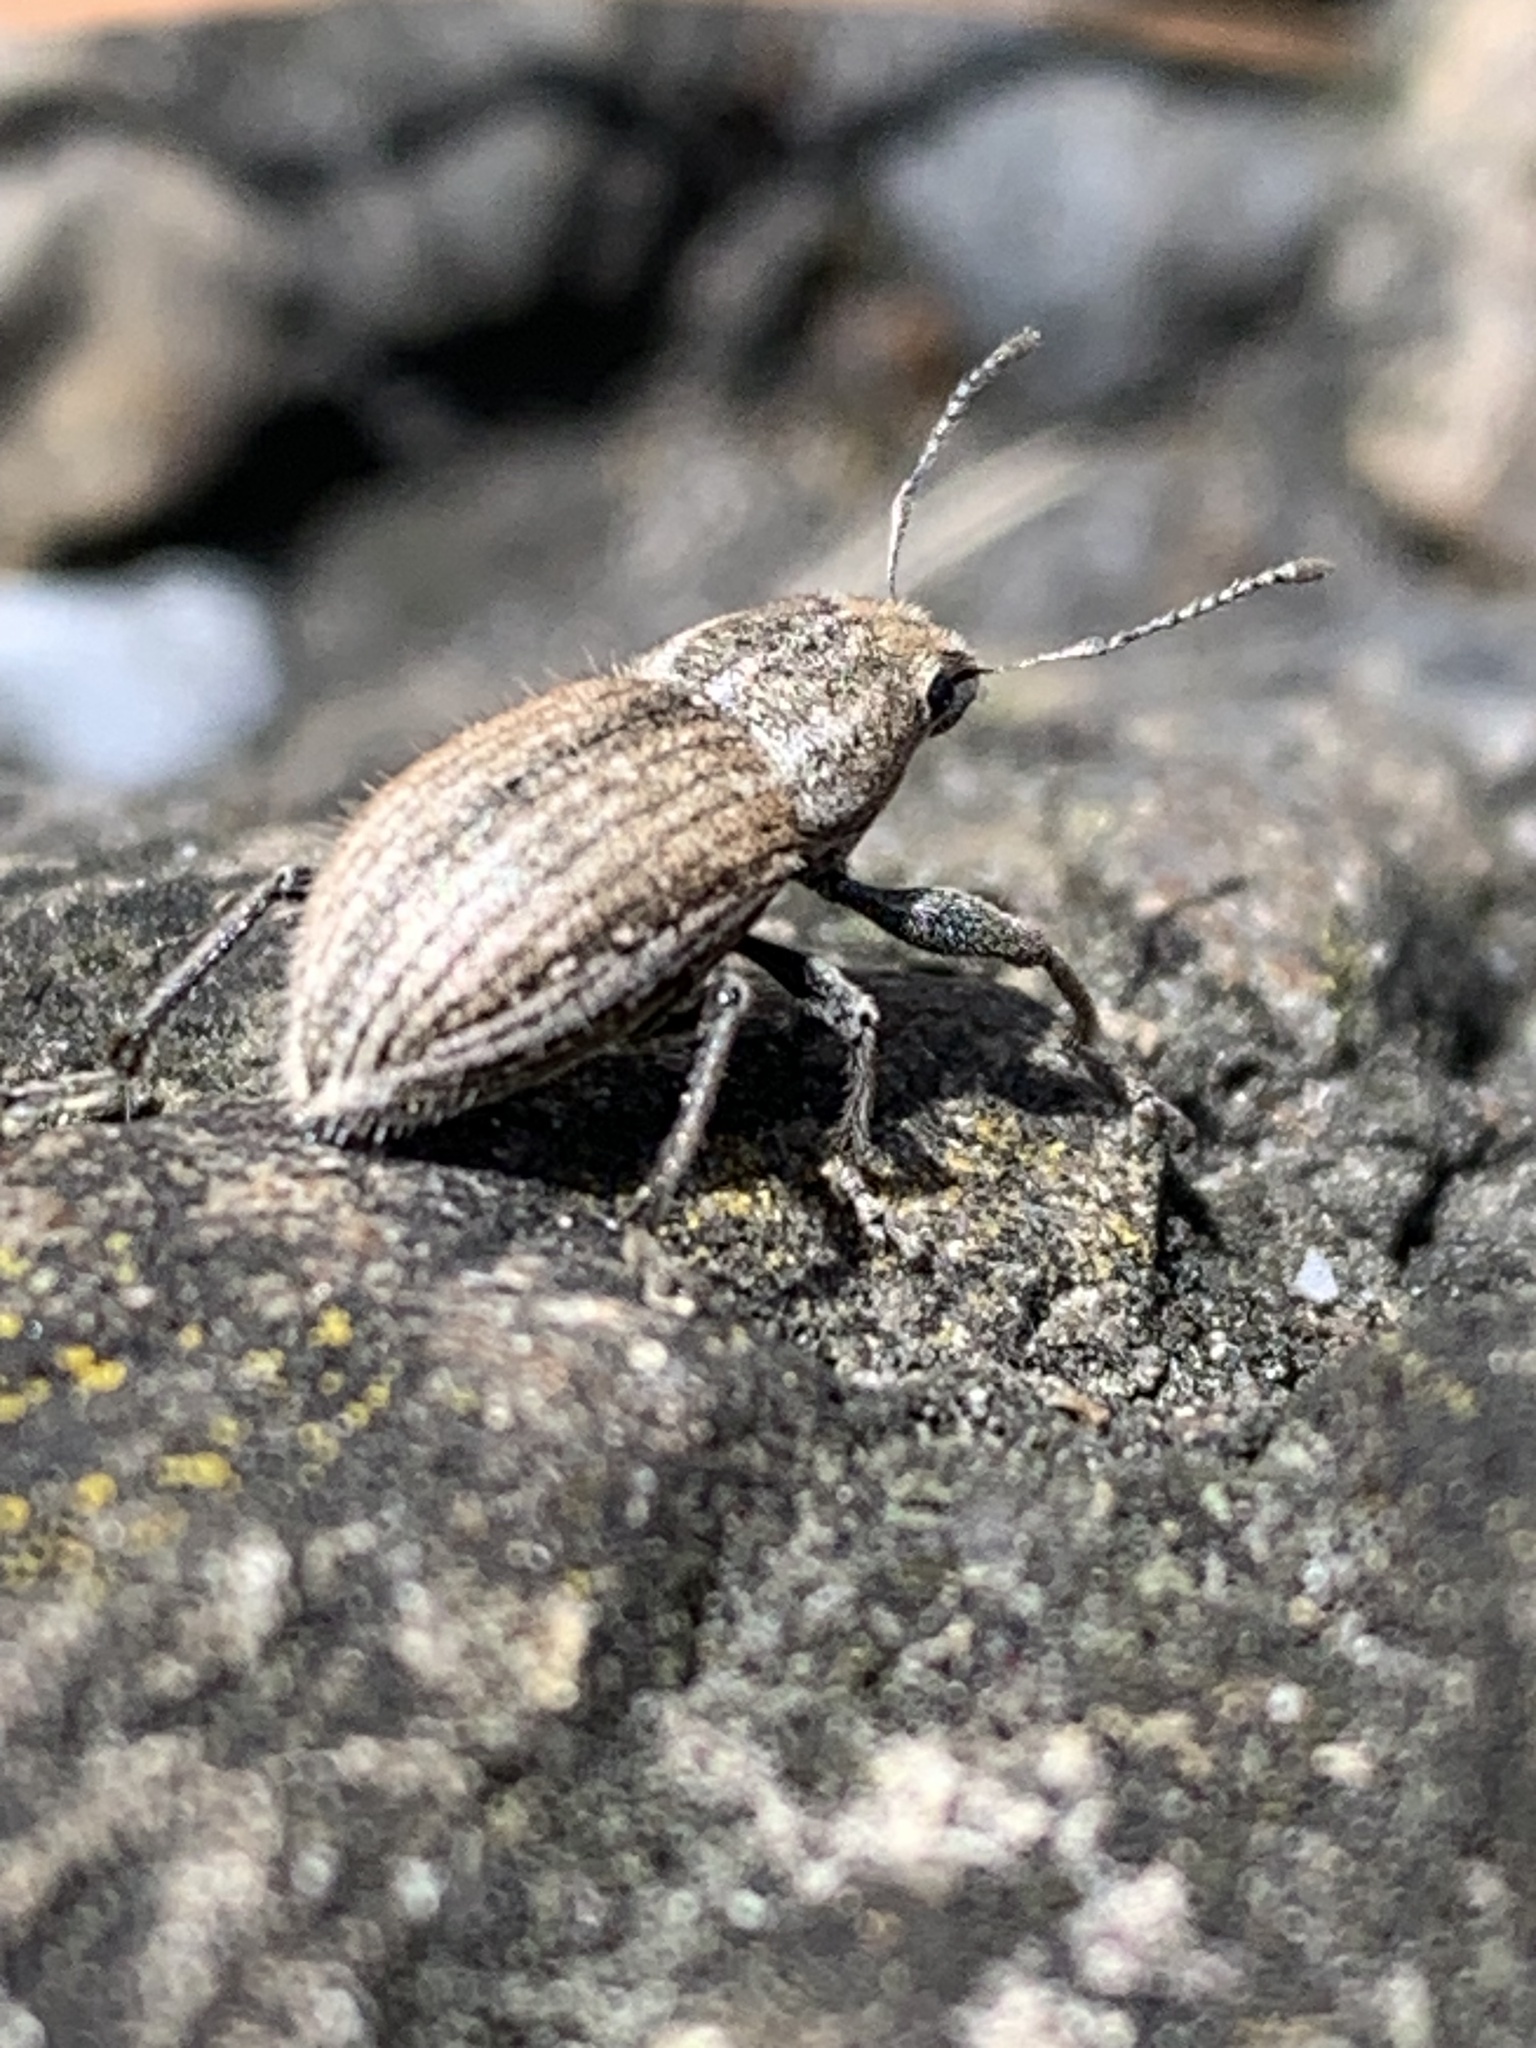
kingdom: Animalia
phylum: Arthropoda
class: Insecta
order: Coleoptera
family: Curculionidae
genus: Naupactus
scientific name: Naupactus leucoloma
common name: Whitefringed beetle
